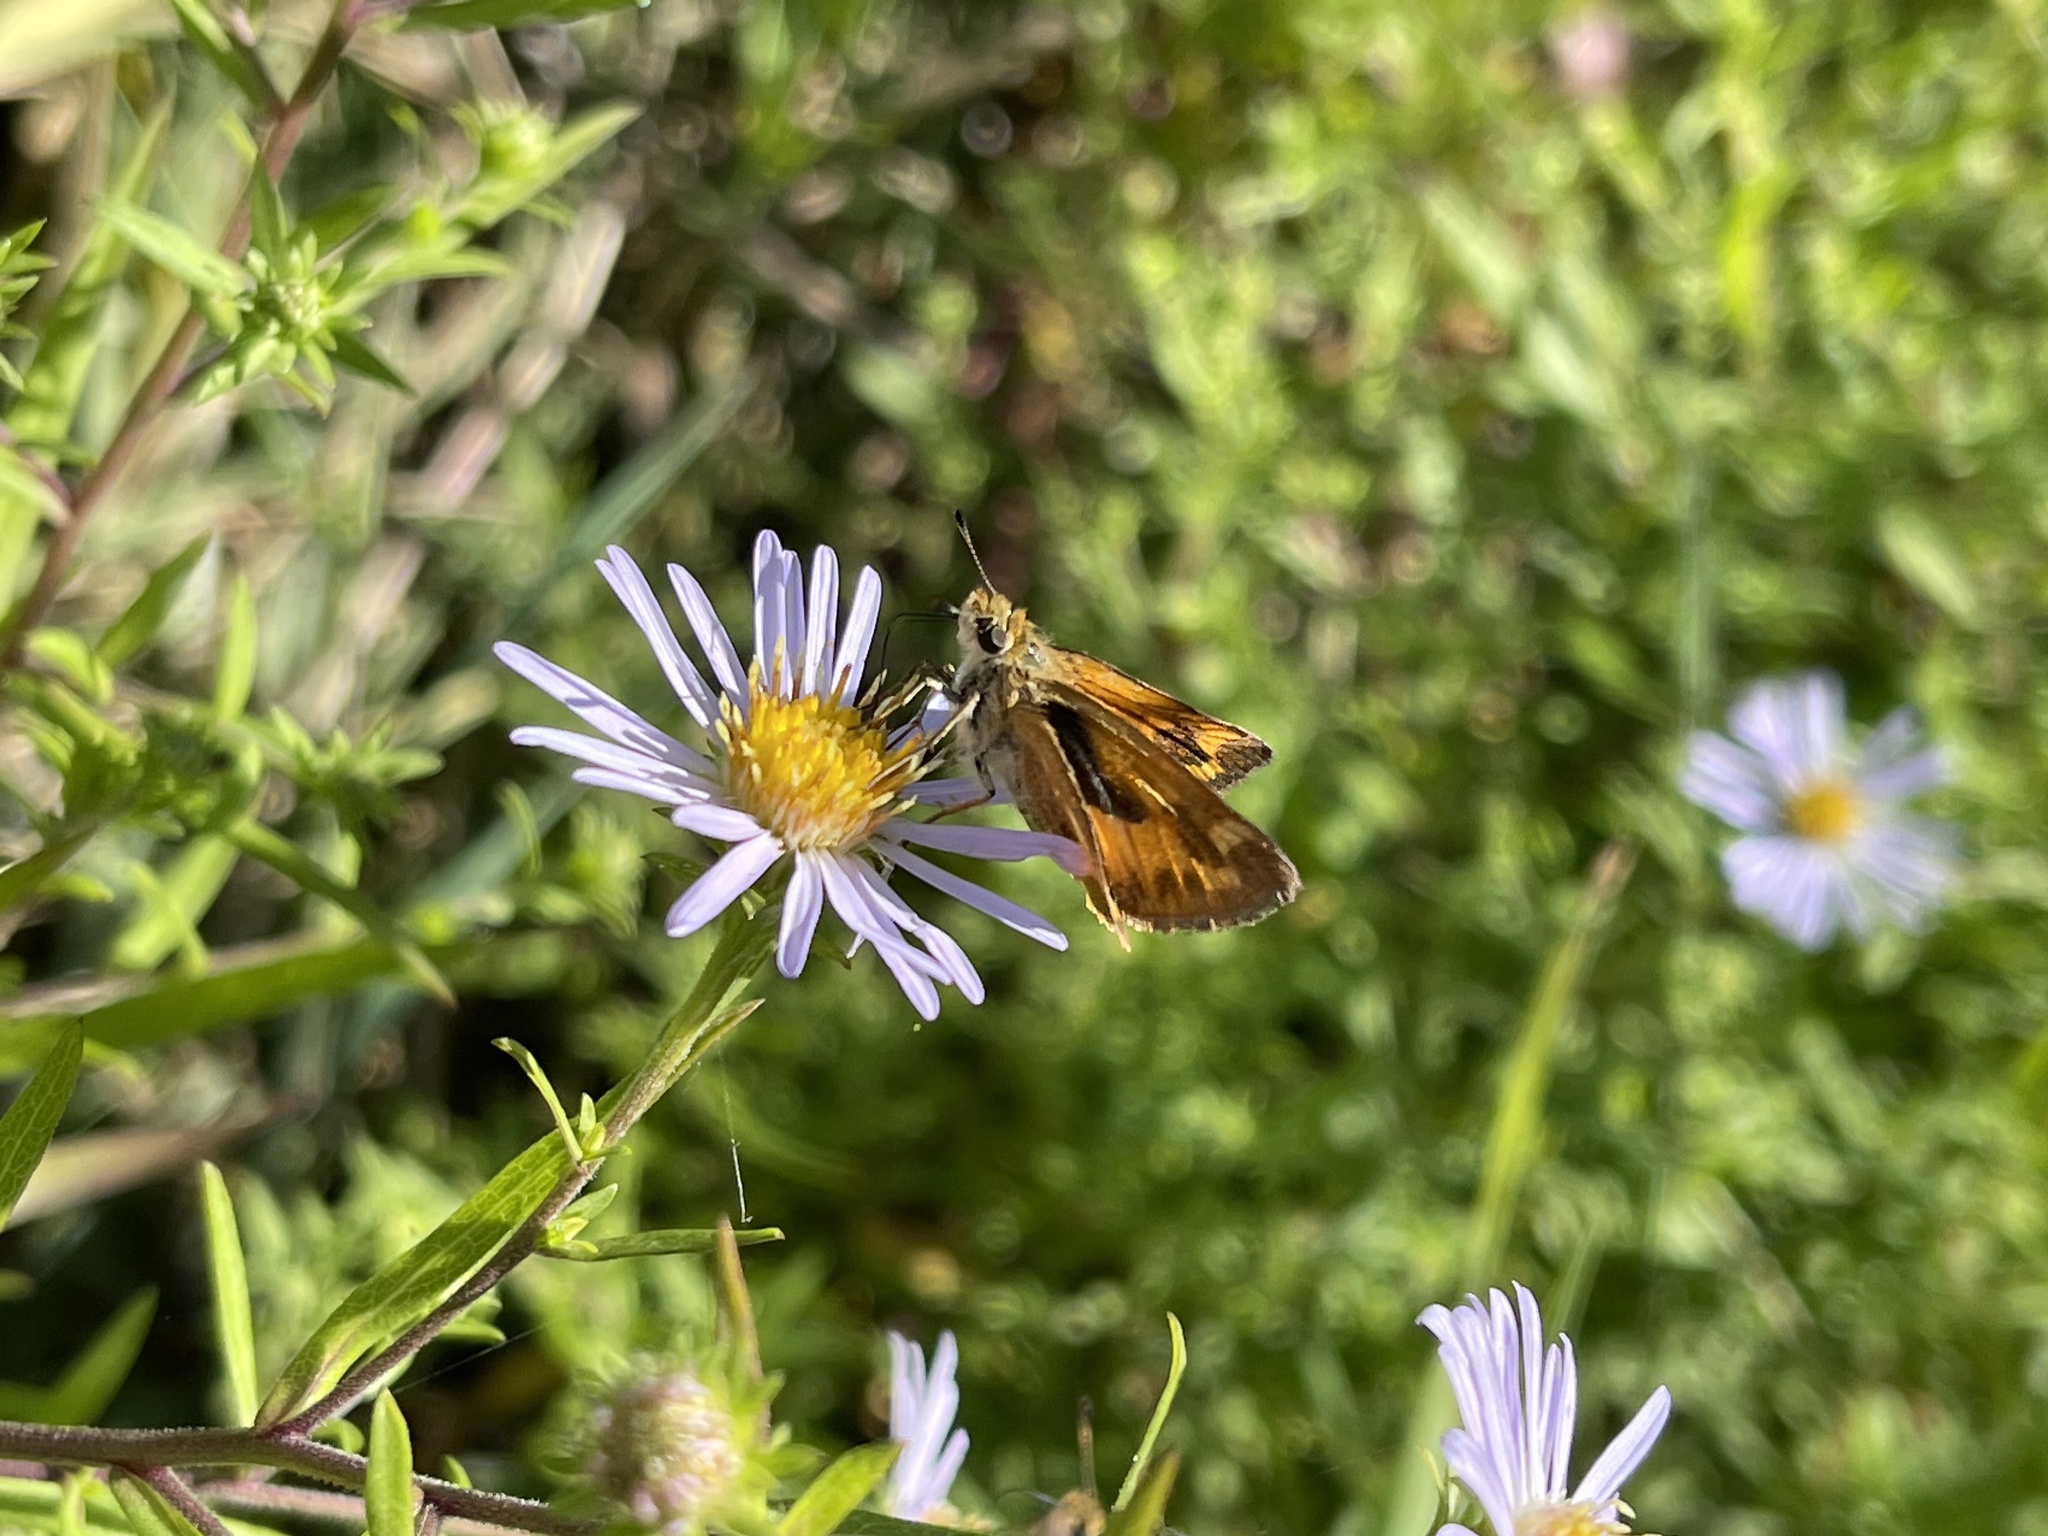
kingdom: Animalia
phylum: Arthropoda
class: Insecta
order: Lepidoptera
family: Hesperiidae
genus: Ochlodes
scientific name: Ochlodes sylvanoides
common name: Woodland skipper
